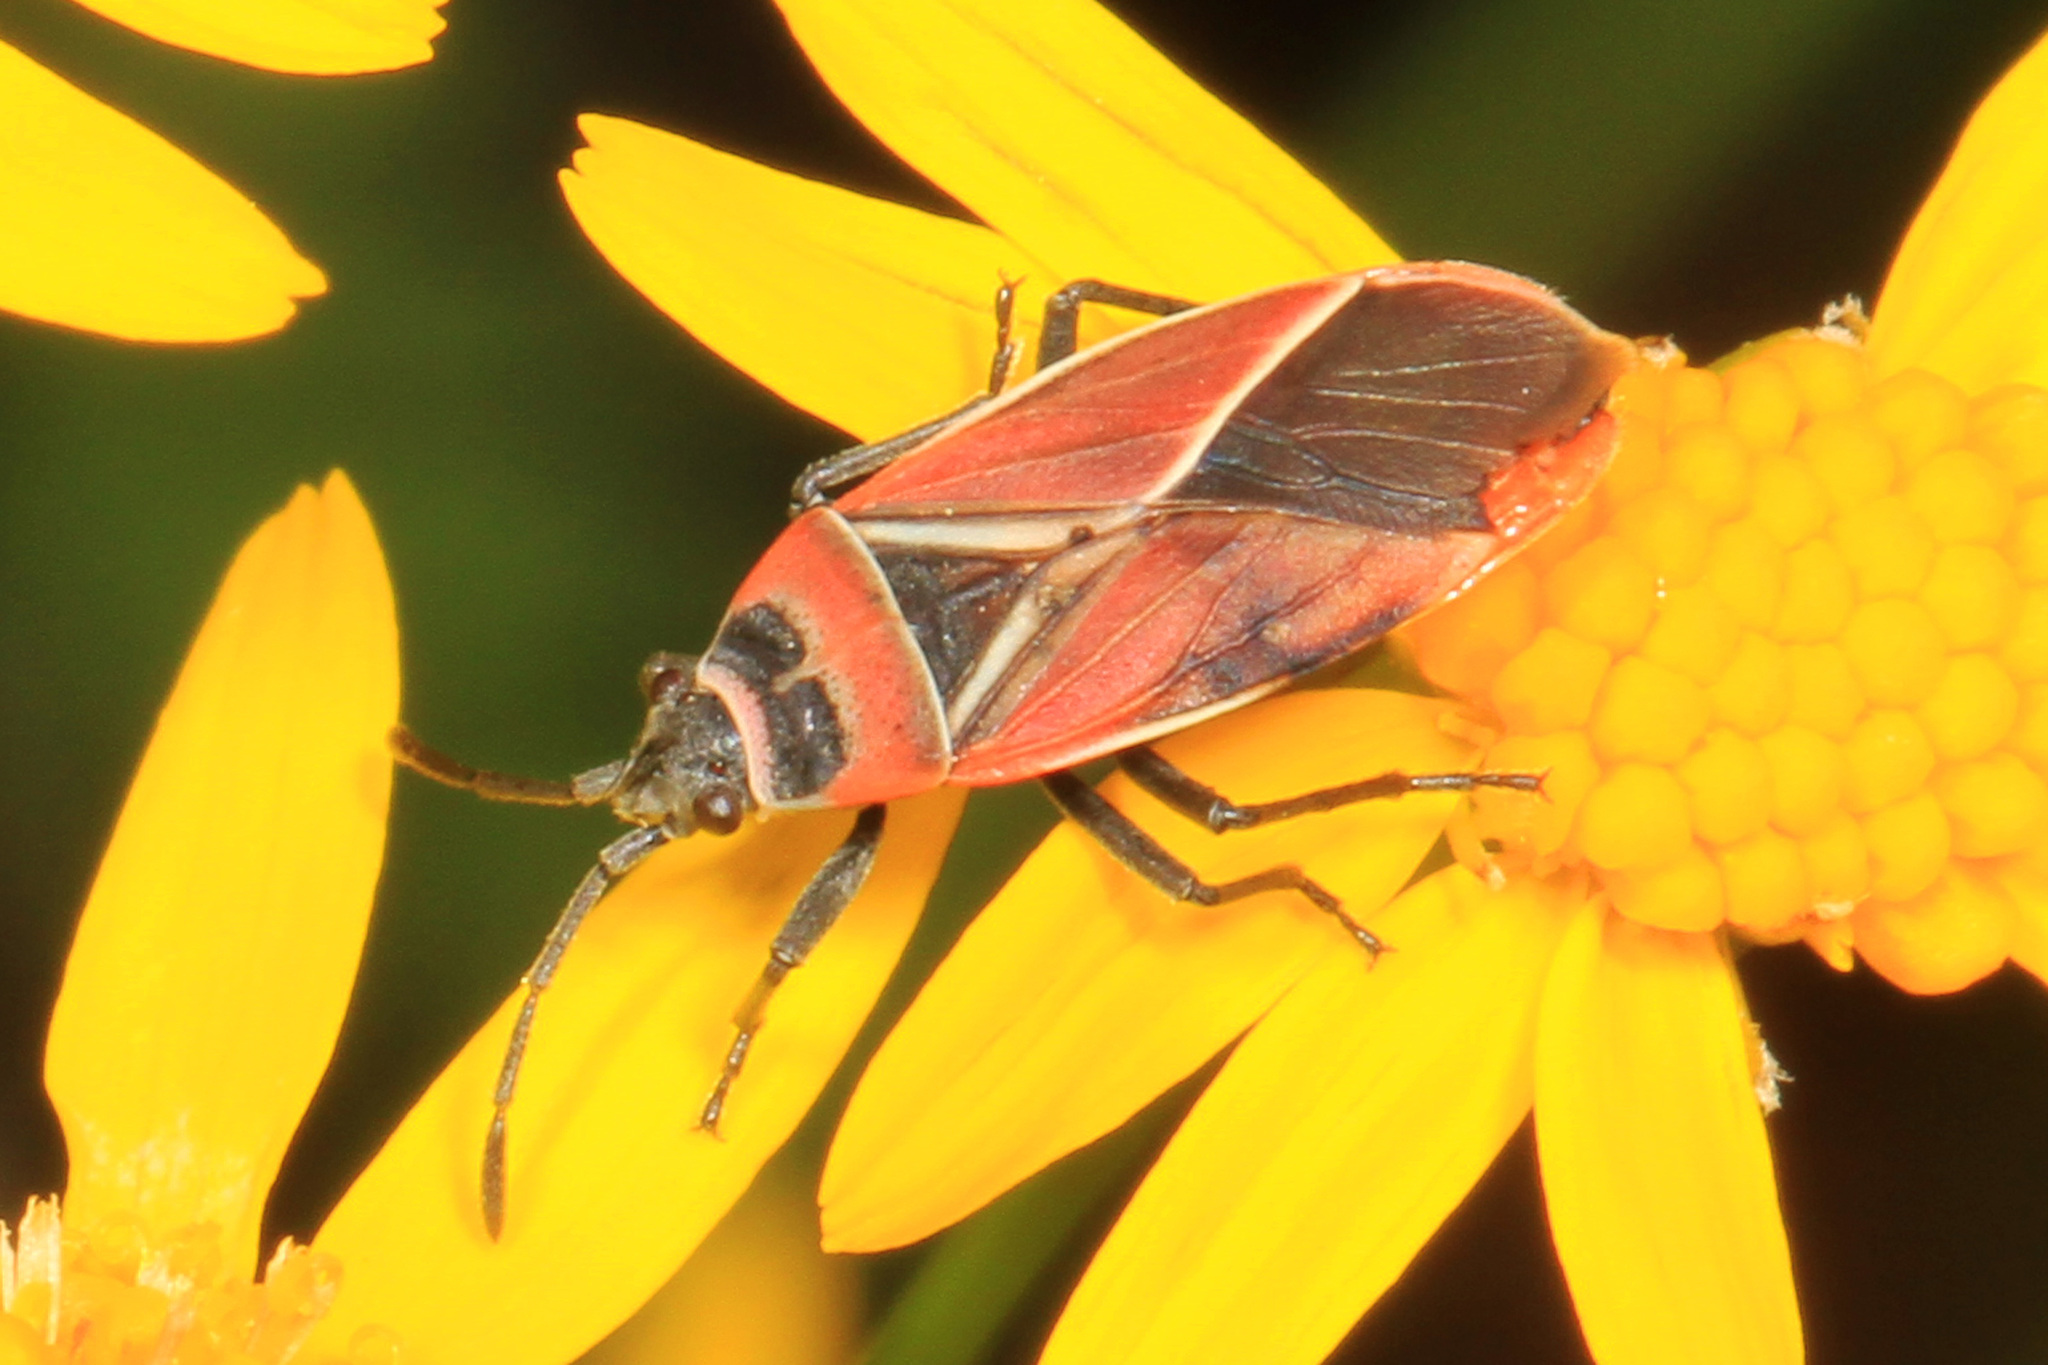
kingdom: Animalia
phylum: Arthropoda
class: Insecta
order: Hemiptera
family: Lygaeidae
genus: Neacoryphus
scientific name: Neacoryphus bicrucis
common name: Lygaeid bug
